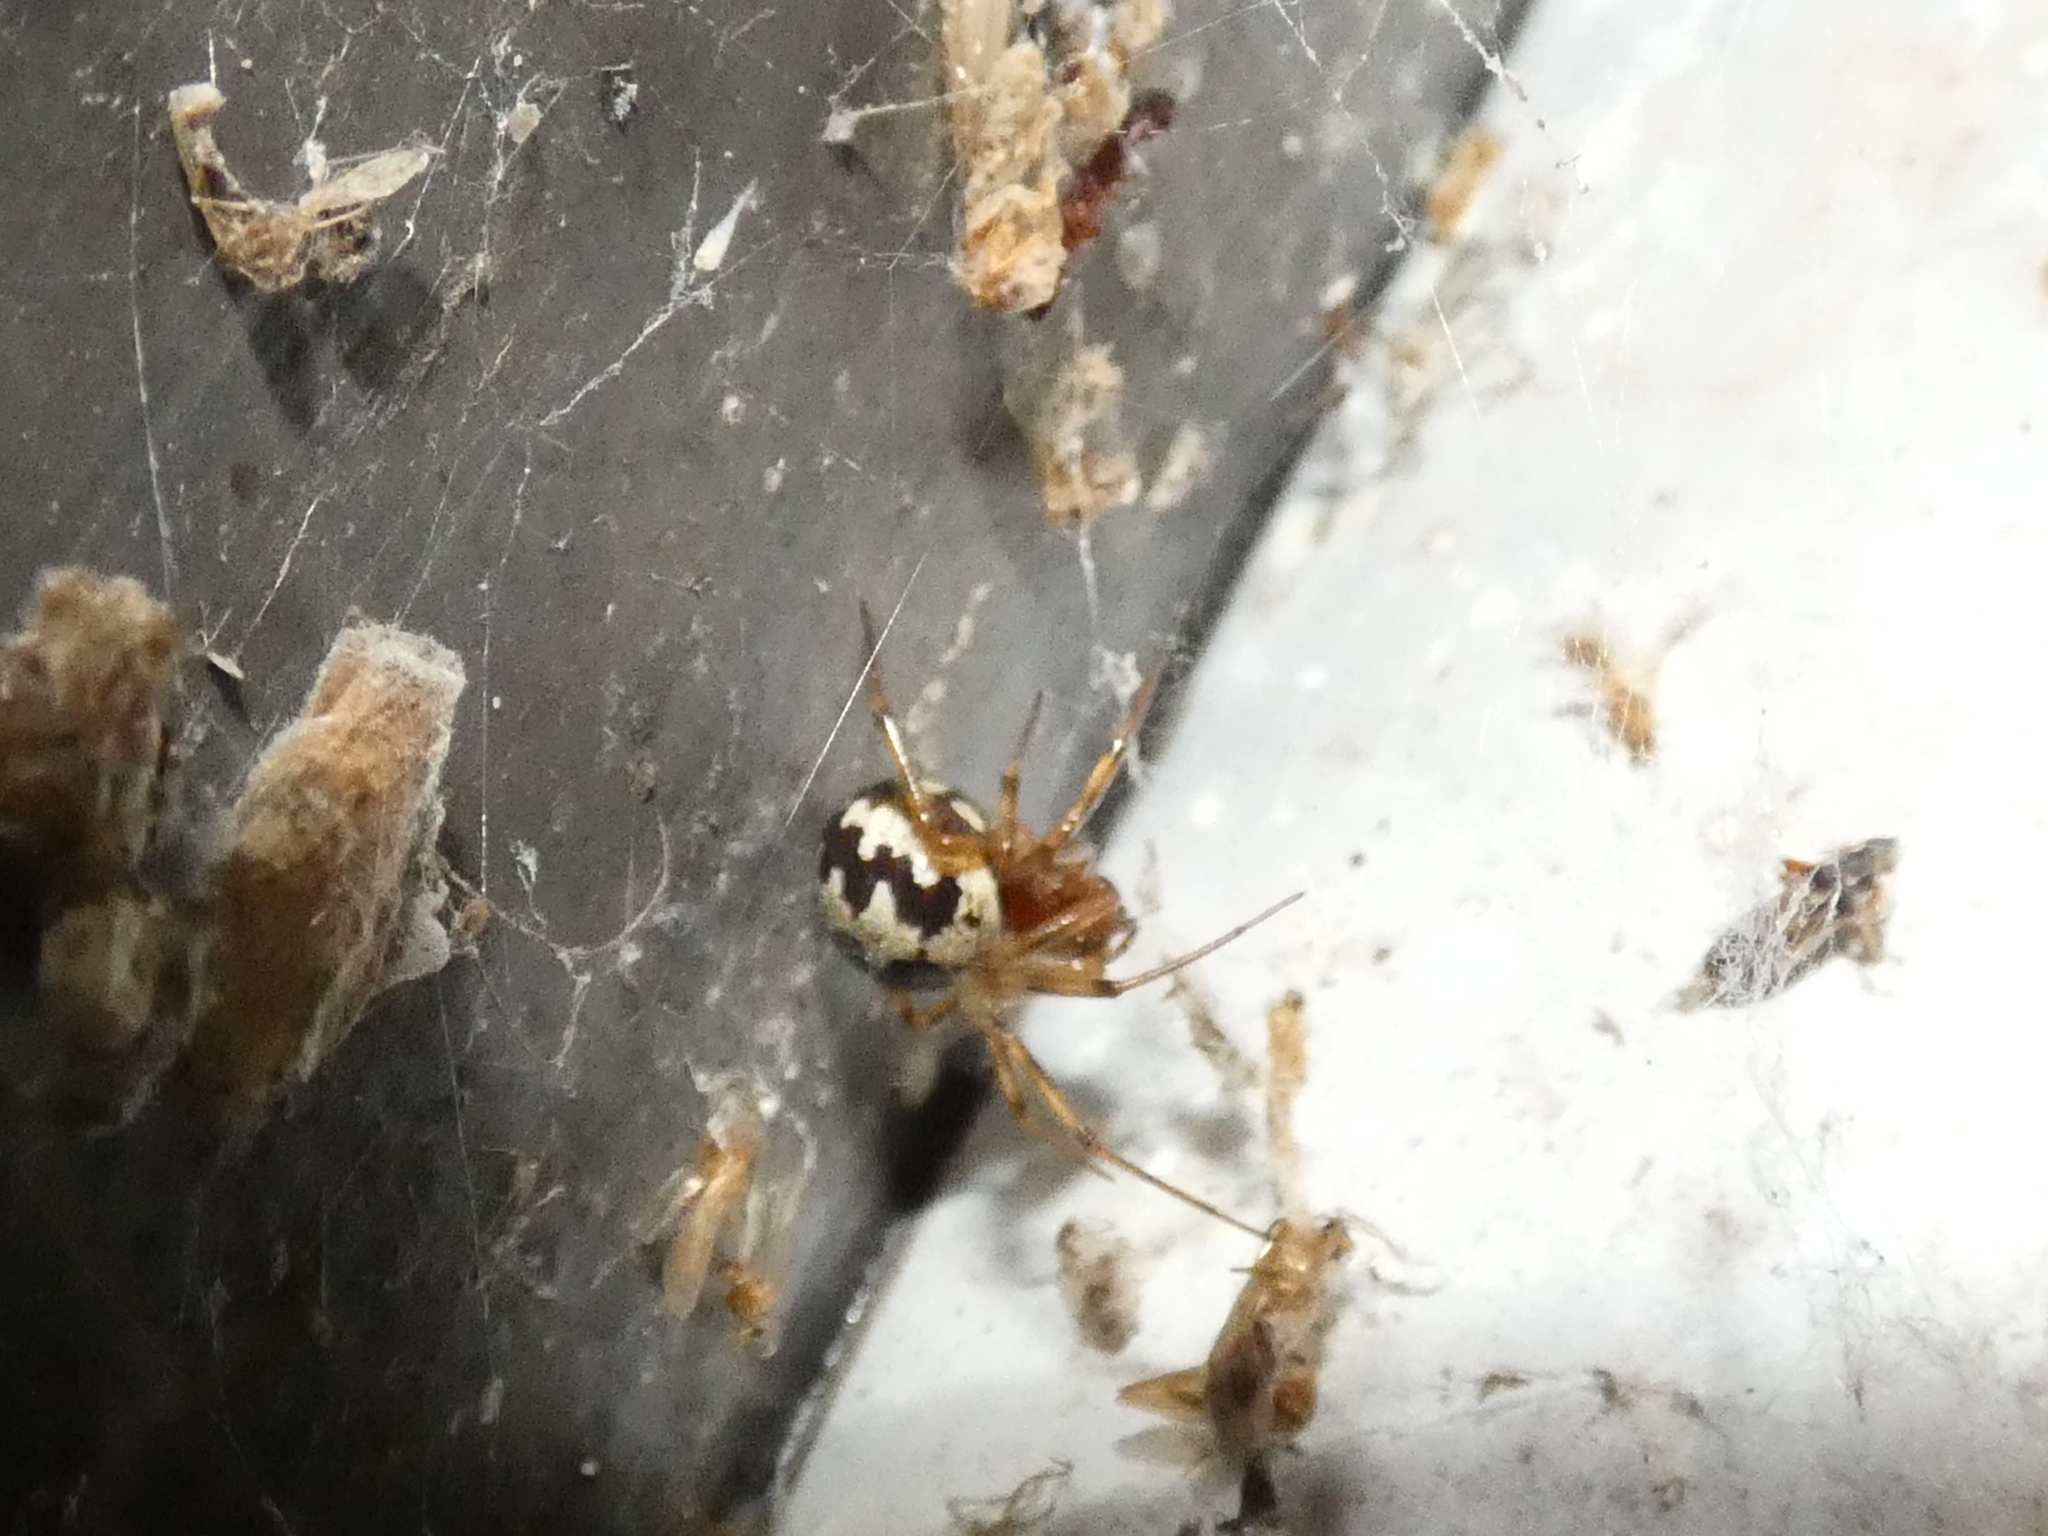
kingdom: Animalia
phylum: Arthropoda
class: Arachnida
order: Araneae
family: Theridiidae
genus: Steatoda
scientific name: Steatoda triangulosa
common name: Triangulate bud spider
